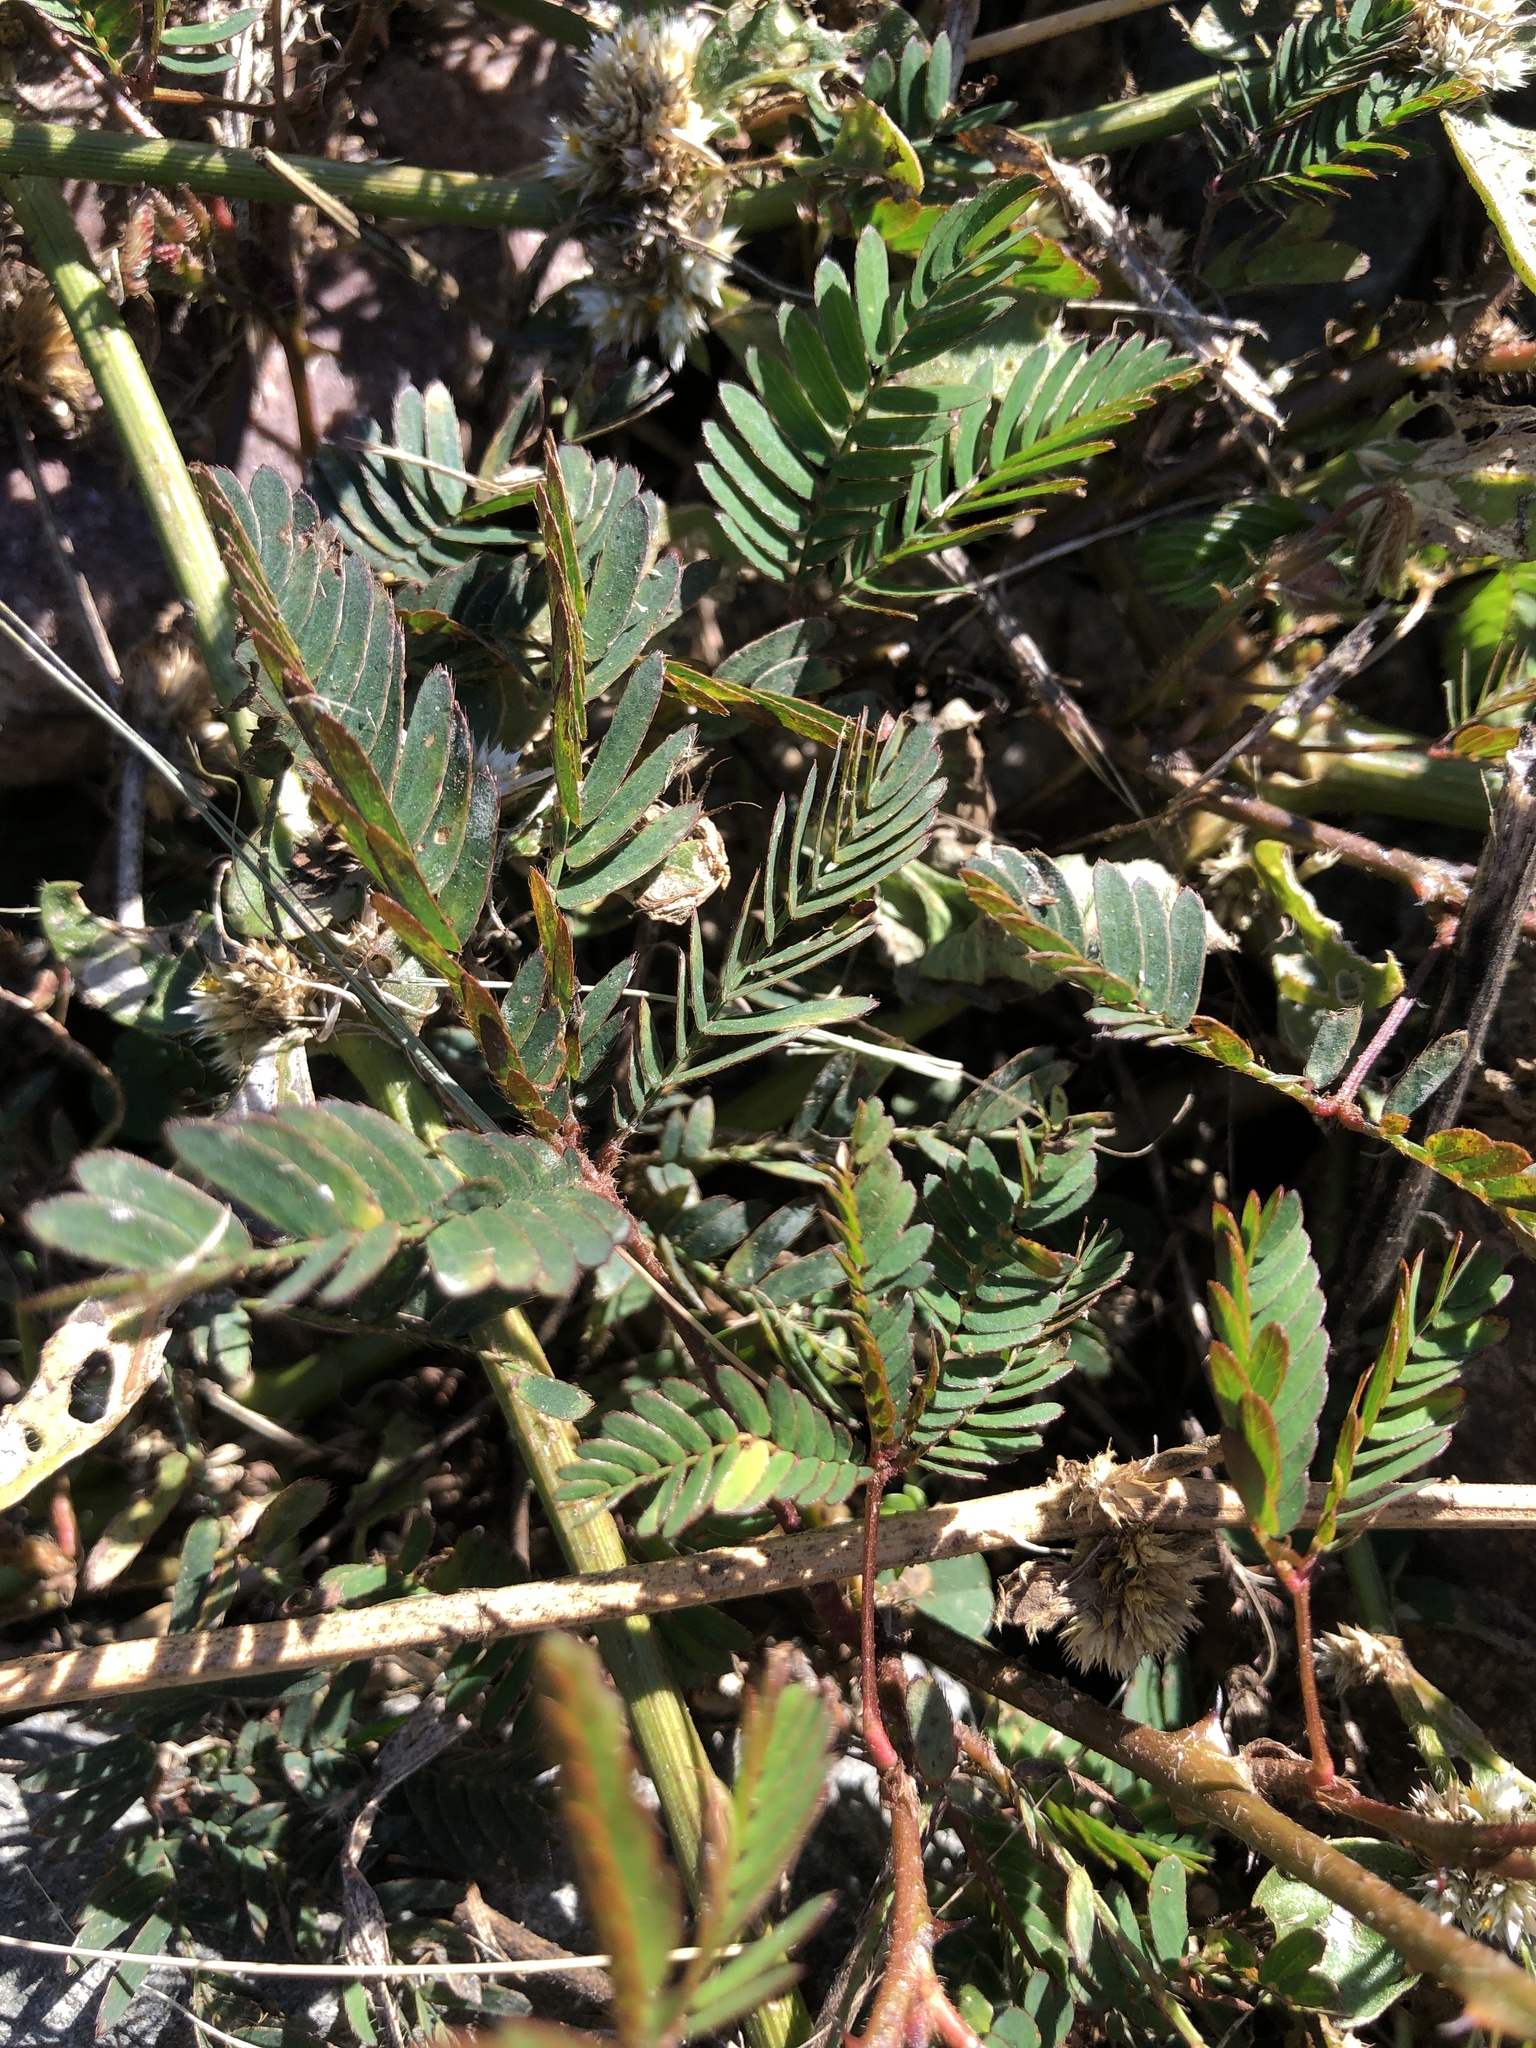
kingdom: Plantae
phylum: Tracheophyta
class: Magnoliopsida
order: Fabales
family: Fabaceae
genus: Mimosa
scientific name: Mimosa pudica
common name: Sensitive plant
